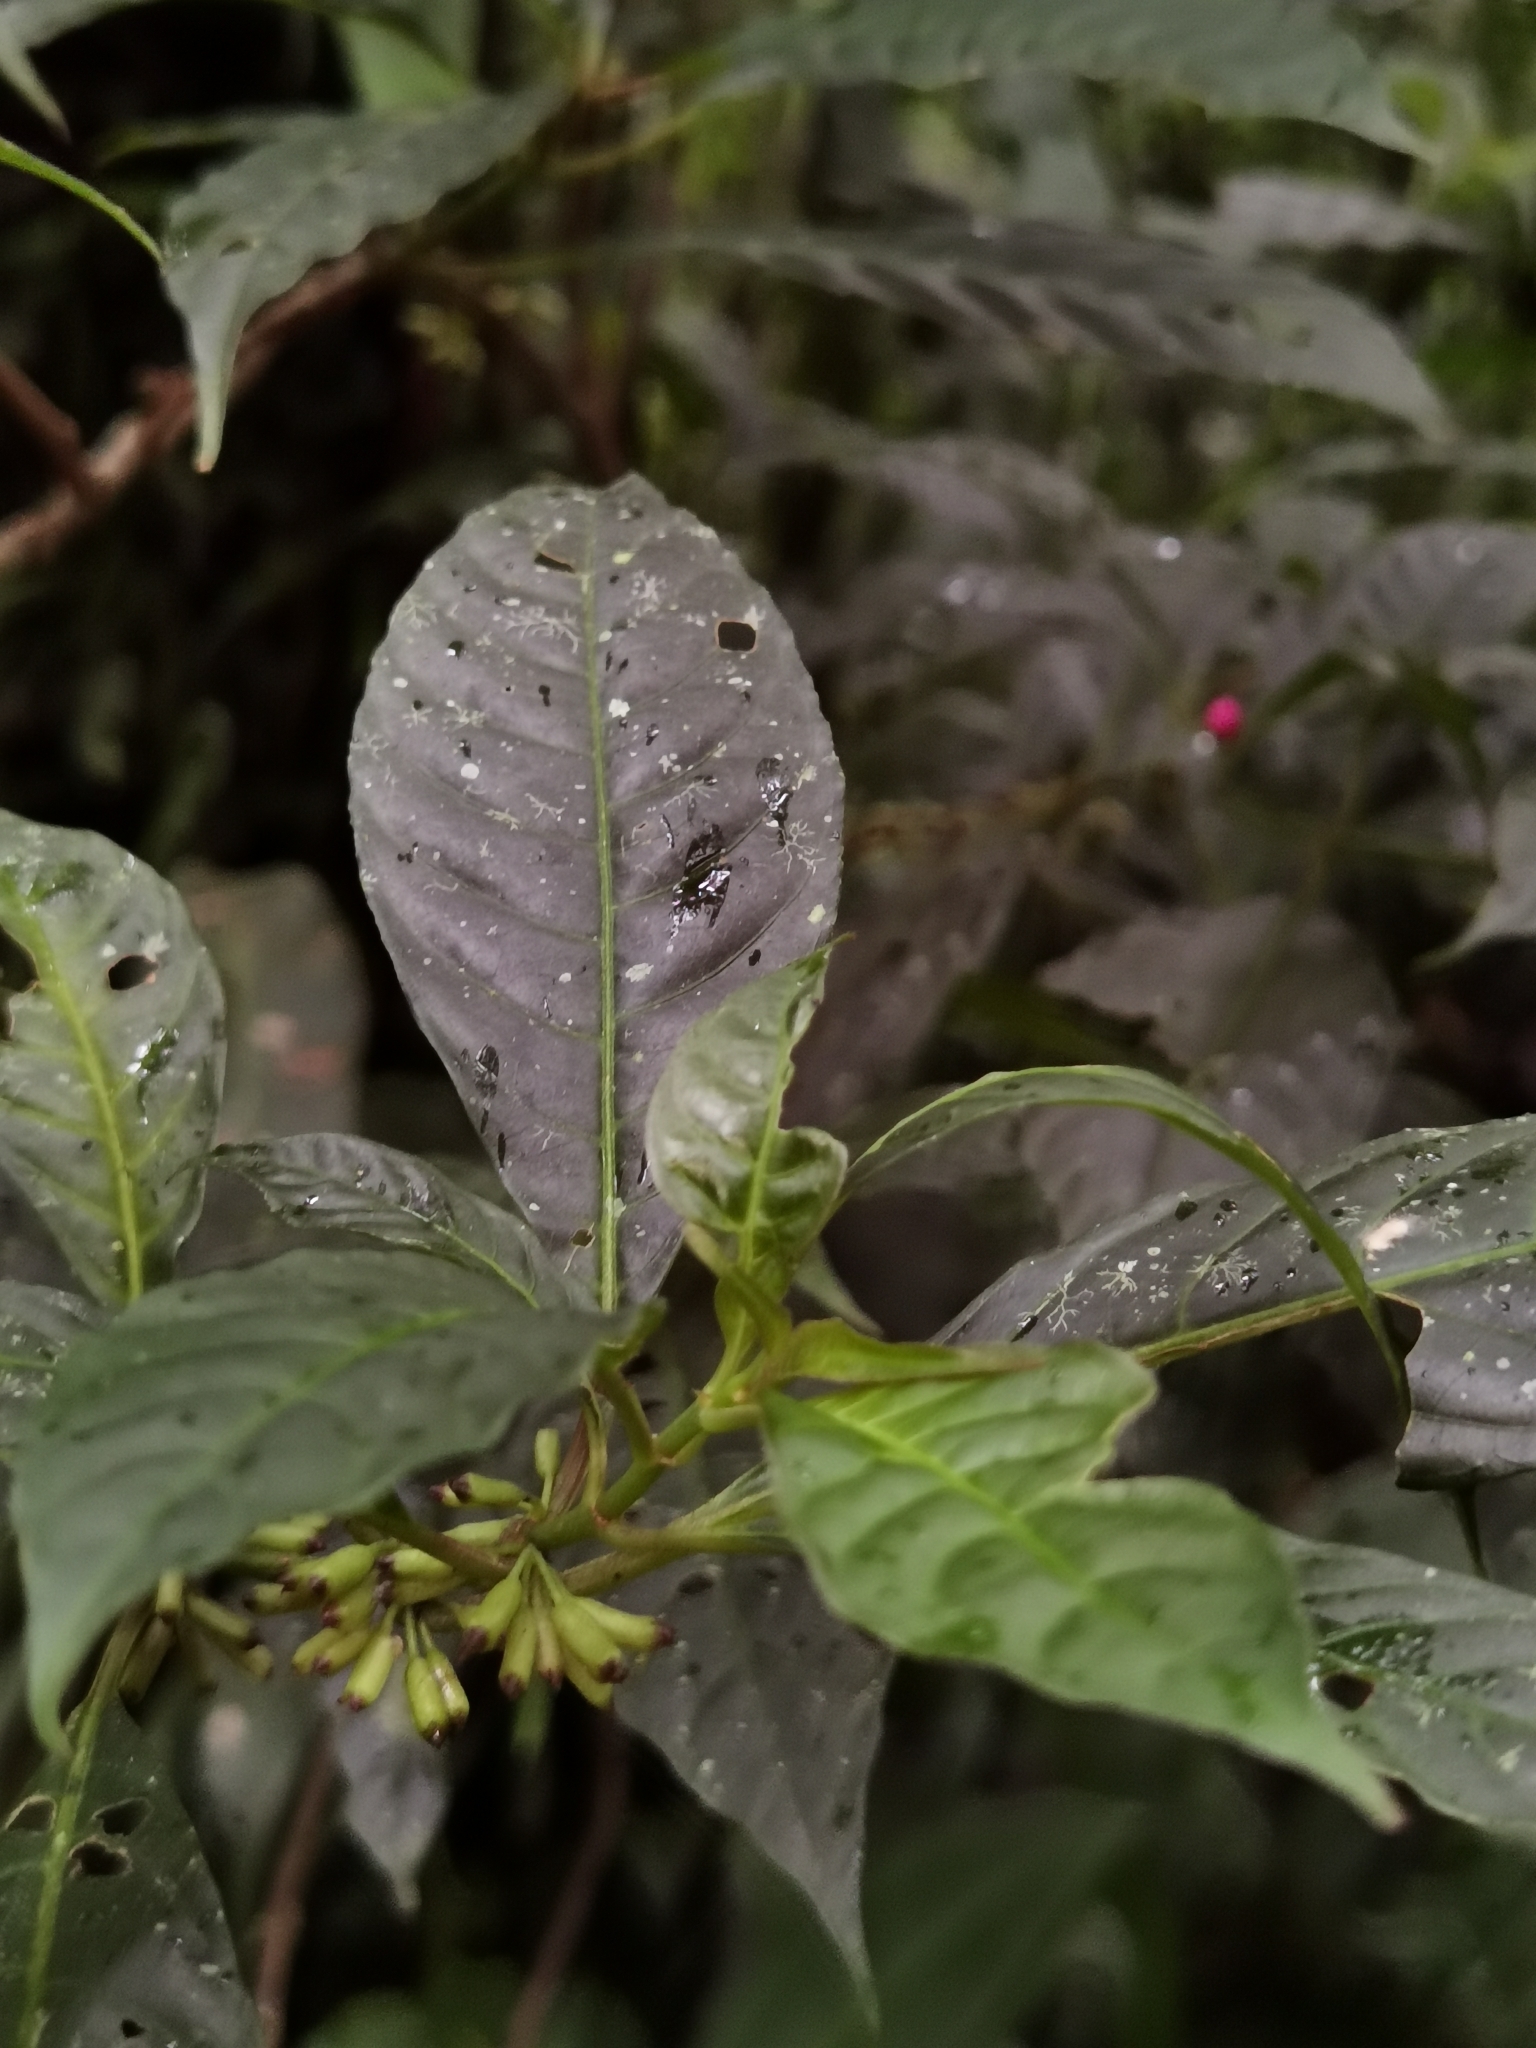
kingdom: Plantae
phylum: Tracheophyta
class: Magnoliopsida
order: Gentianales
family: Rubiaceae
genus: Hoffmannia
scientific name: Hoffmannia psychotriifolia
